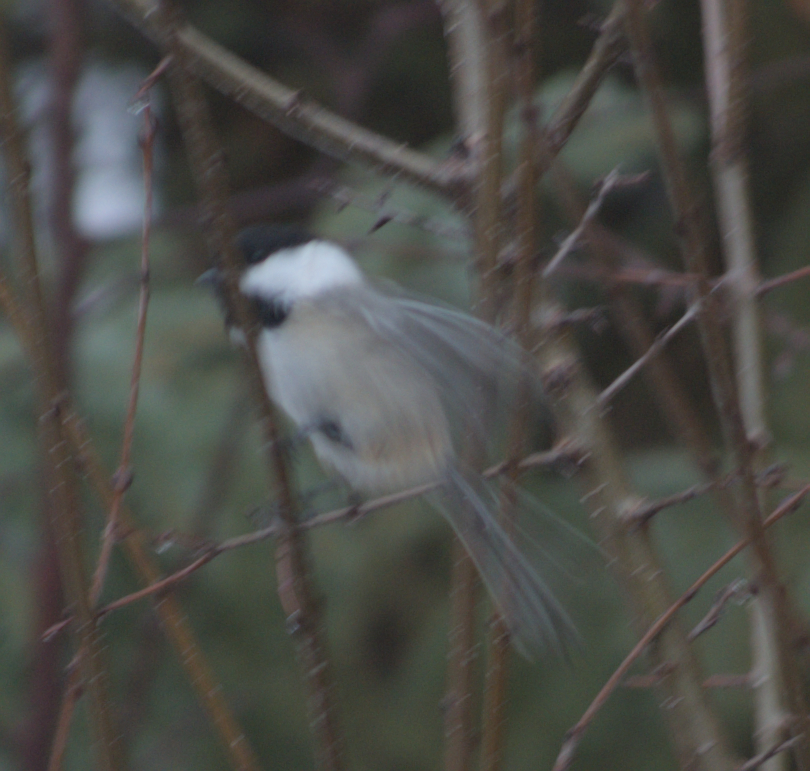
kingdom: Animalia
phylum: Chordata
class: Aves
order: Passeriformes
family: Paridae
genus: Poecile
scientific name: Poecile atricapillus
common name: Black-capped chickadee
